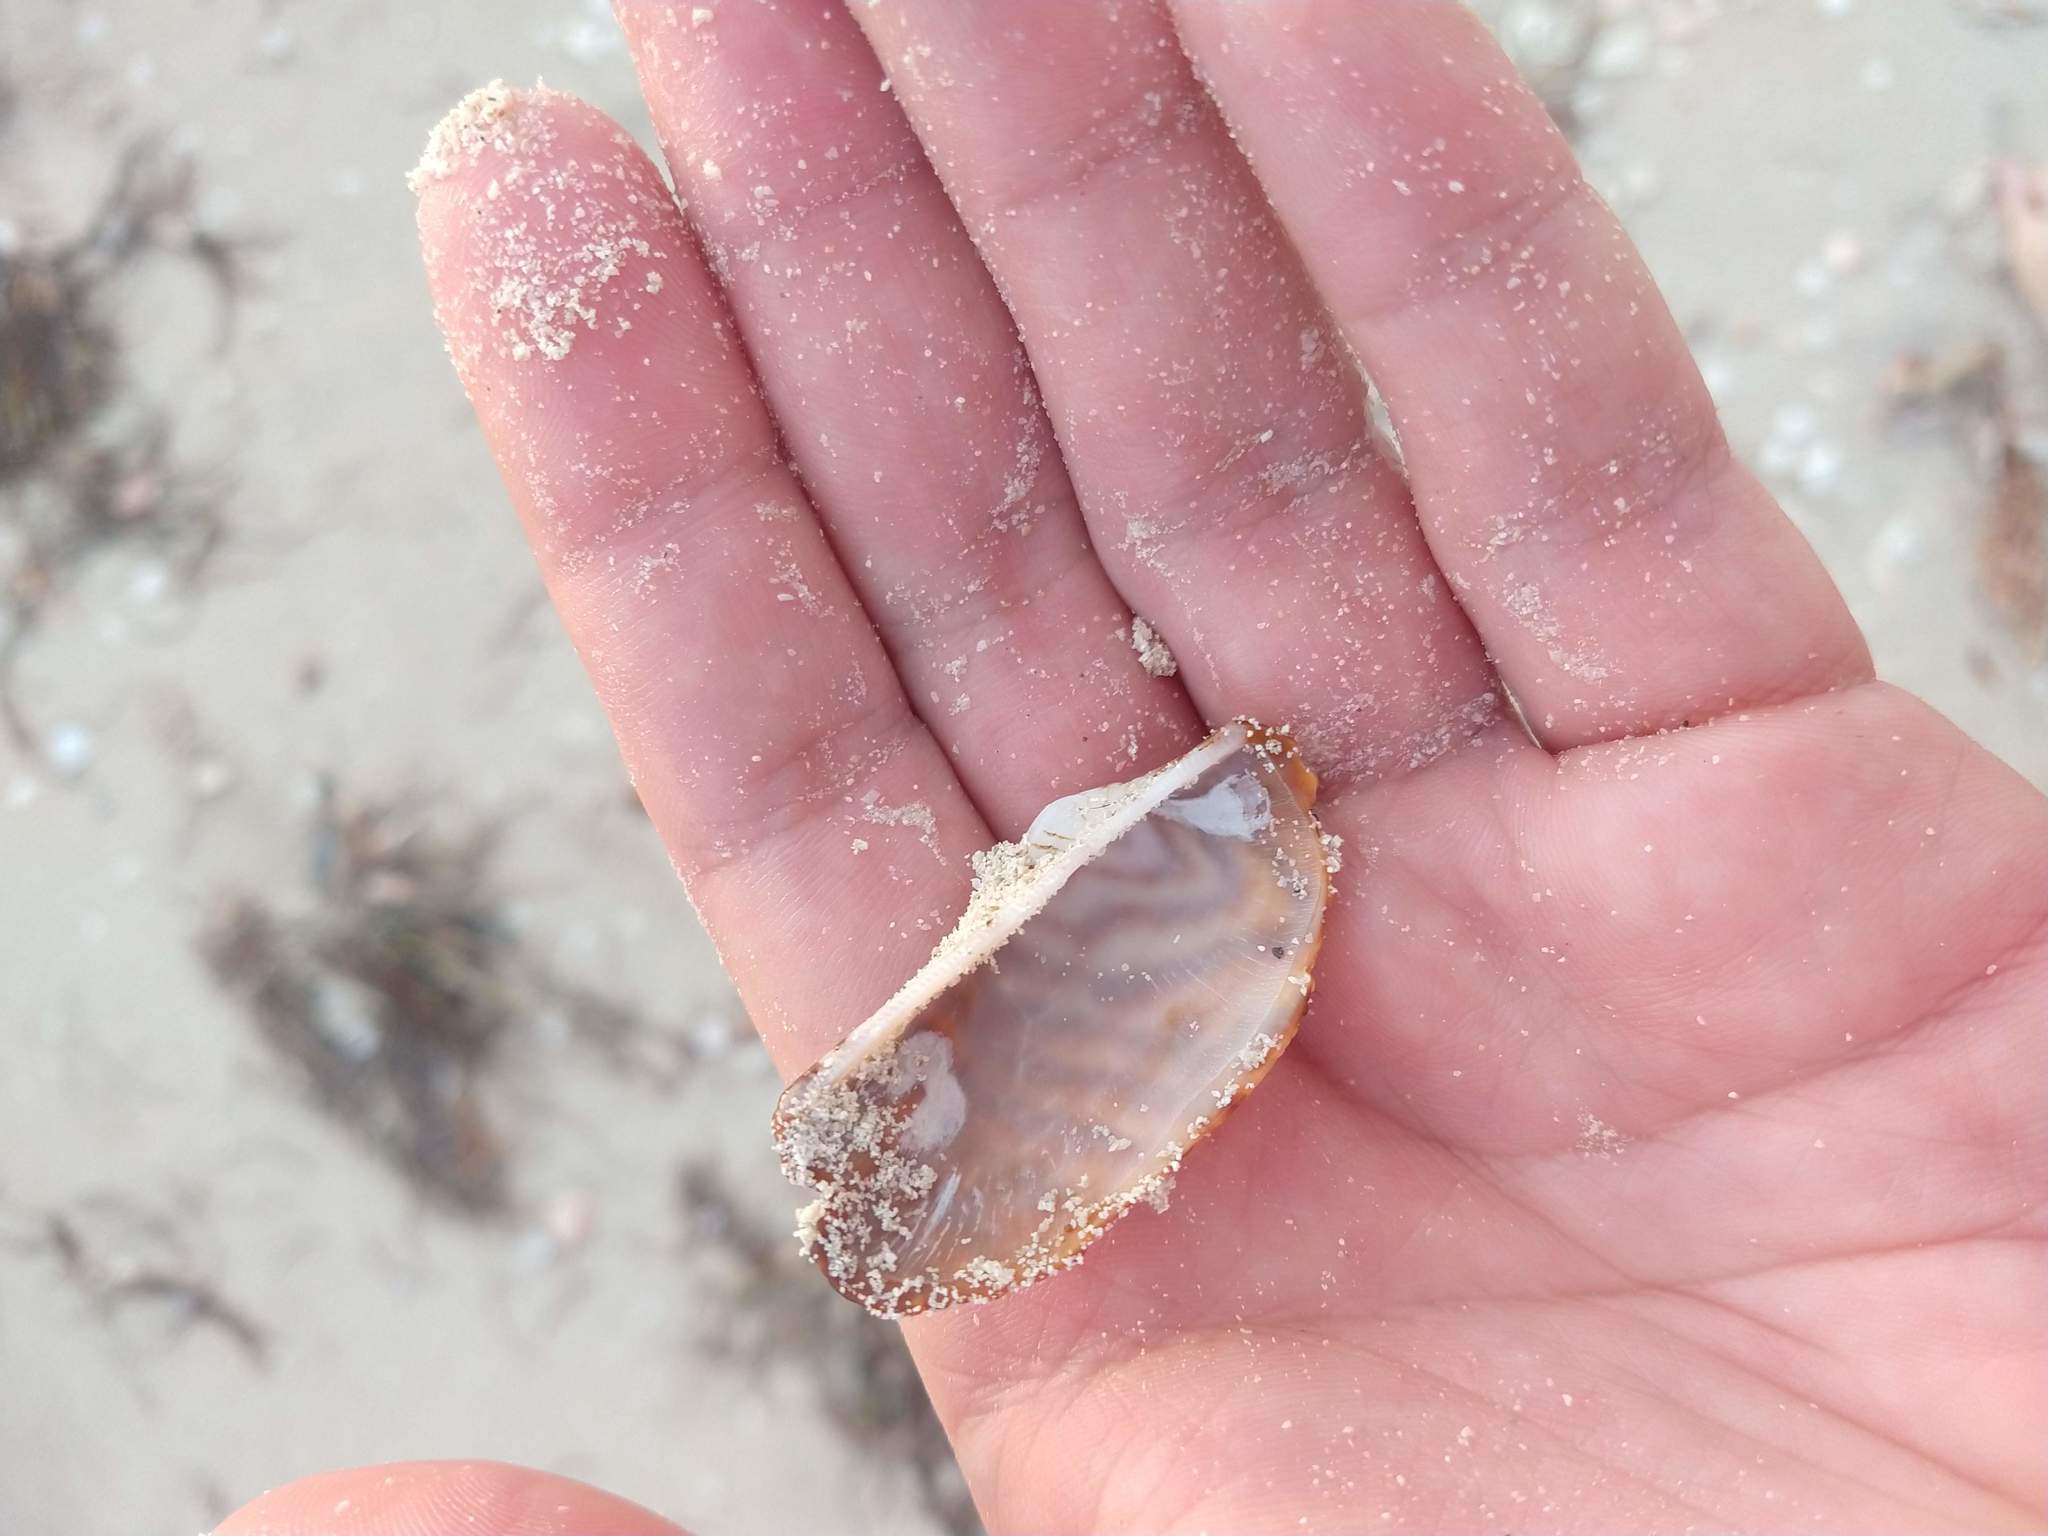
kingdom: Animalia
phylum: Mollusca
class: Bivalvia
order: Arcida
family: Arcidae
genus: Arca
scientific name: Arca zebra
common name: Atlantic turkey wing
